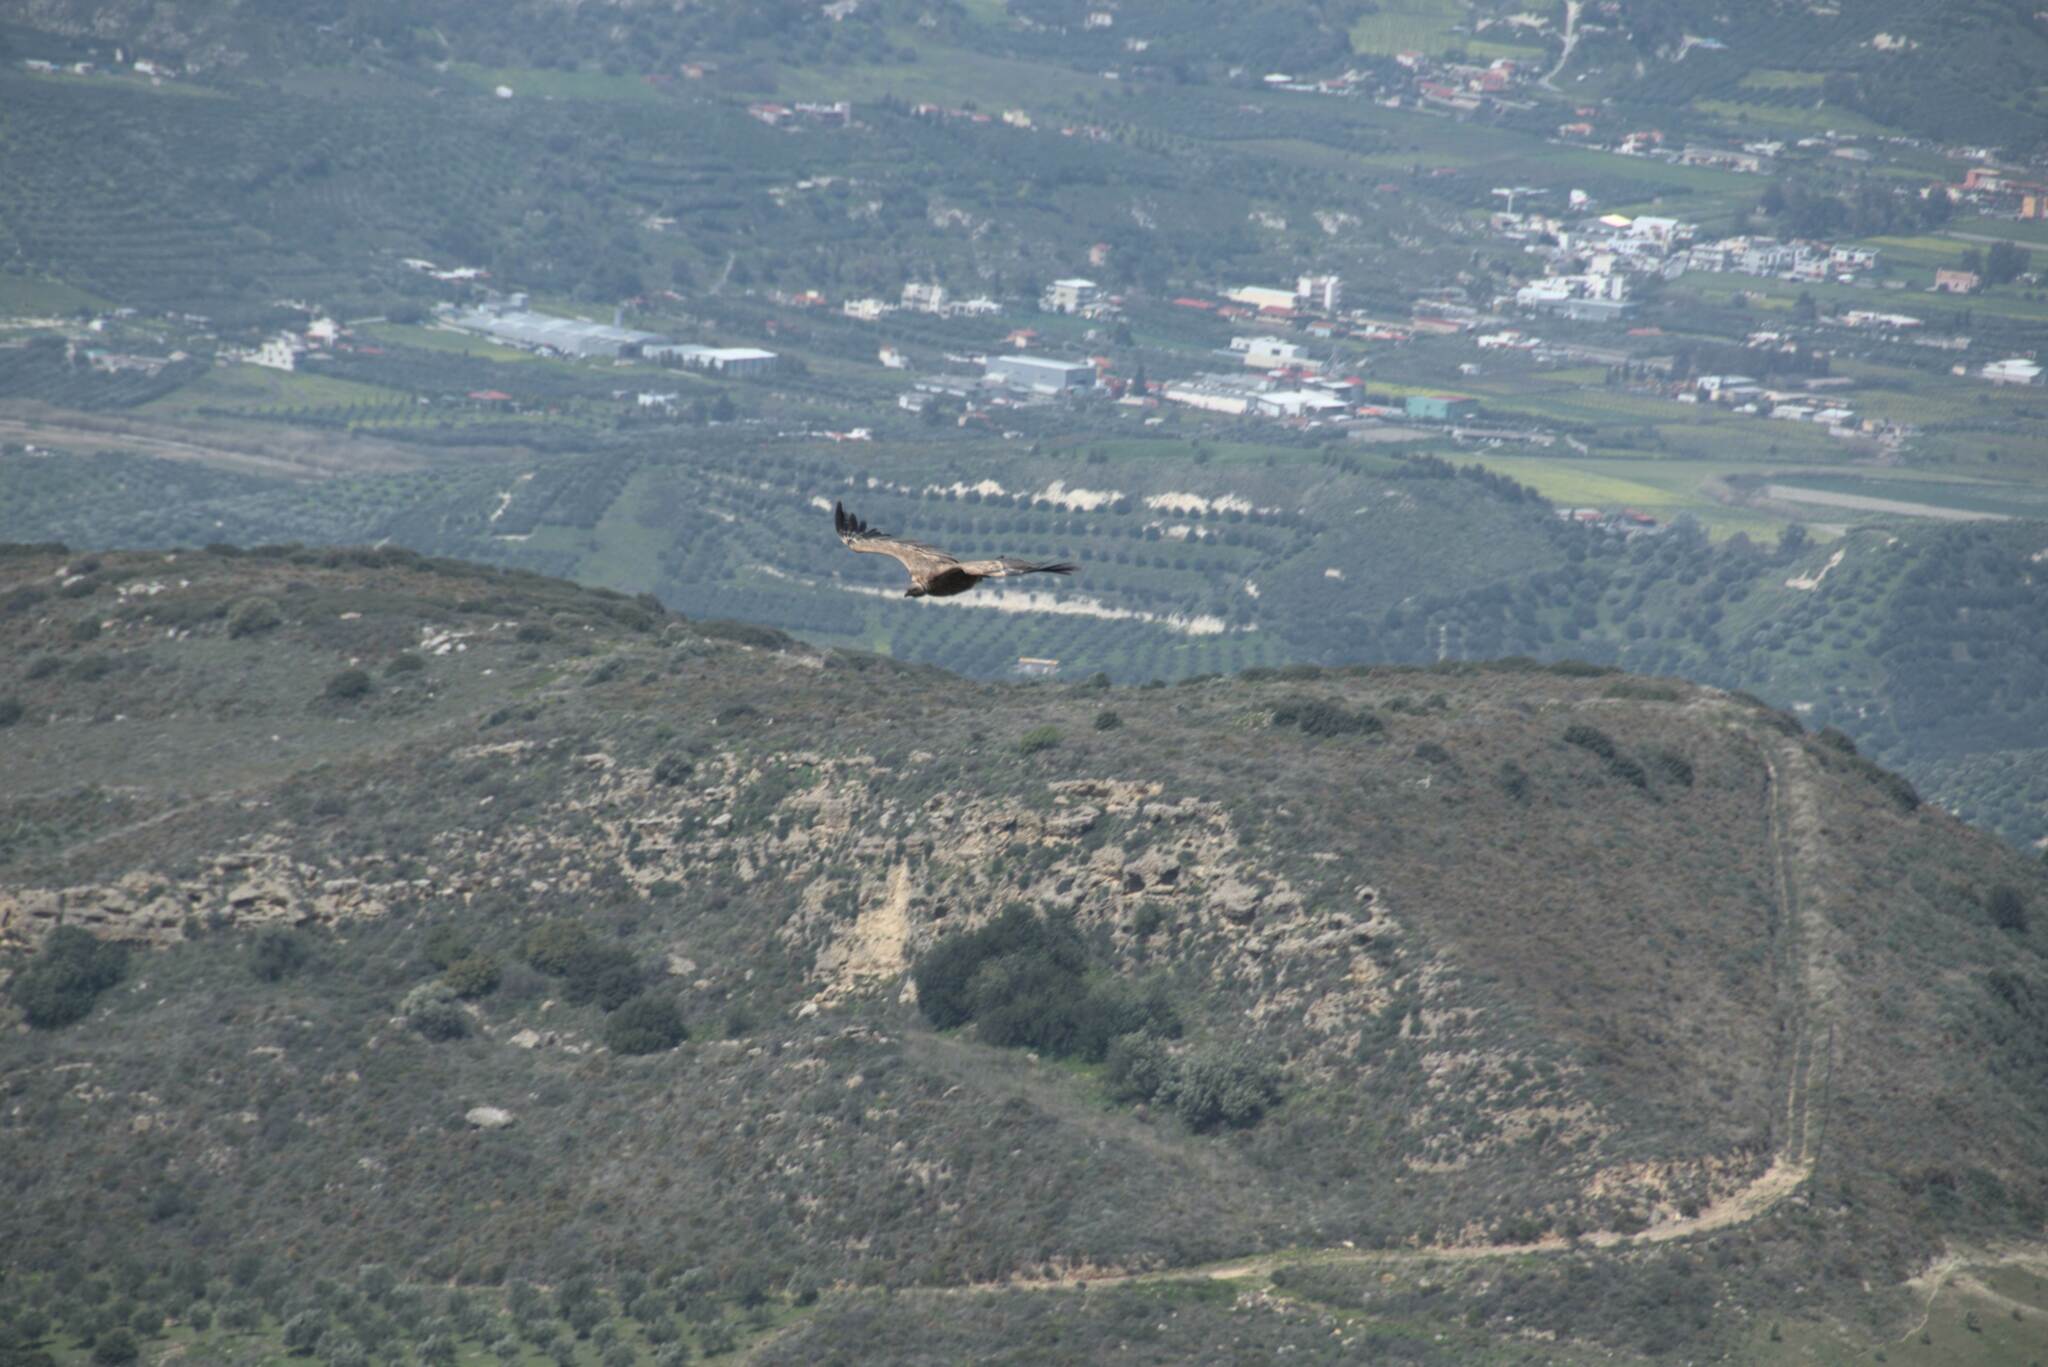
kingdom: Animalia
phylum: Chordata
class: Aves
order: Accipitriformes
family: Accipitridae
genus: Gyps
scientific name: Gyps fulvus
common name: Griffon vulture
